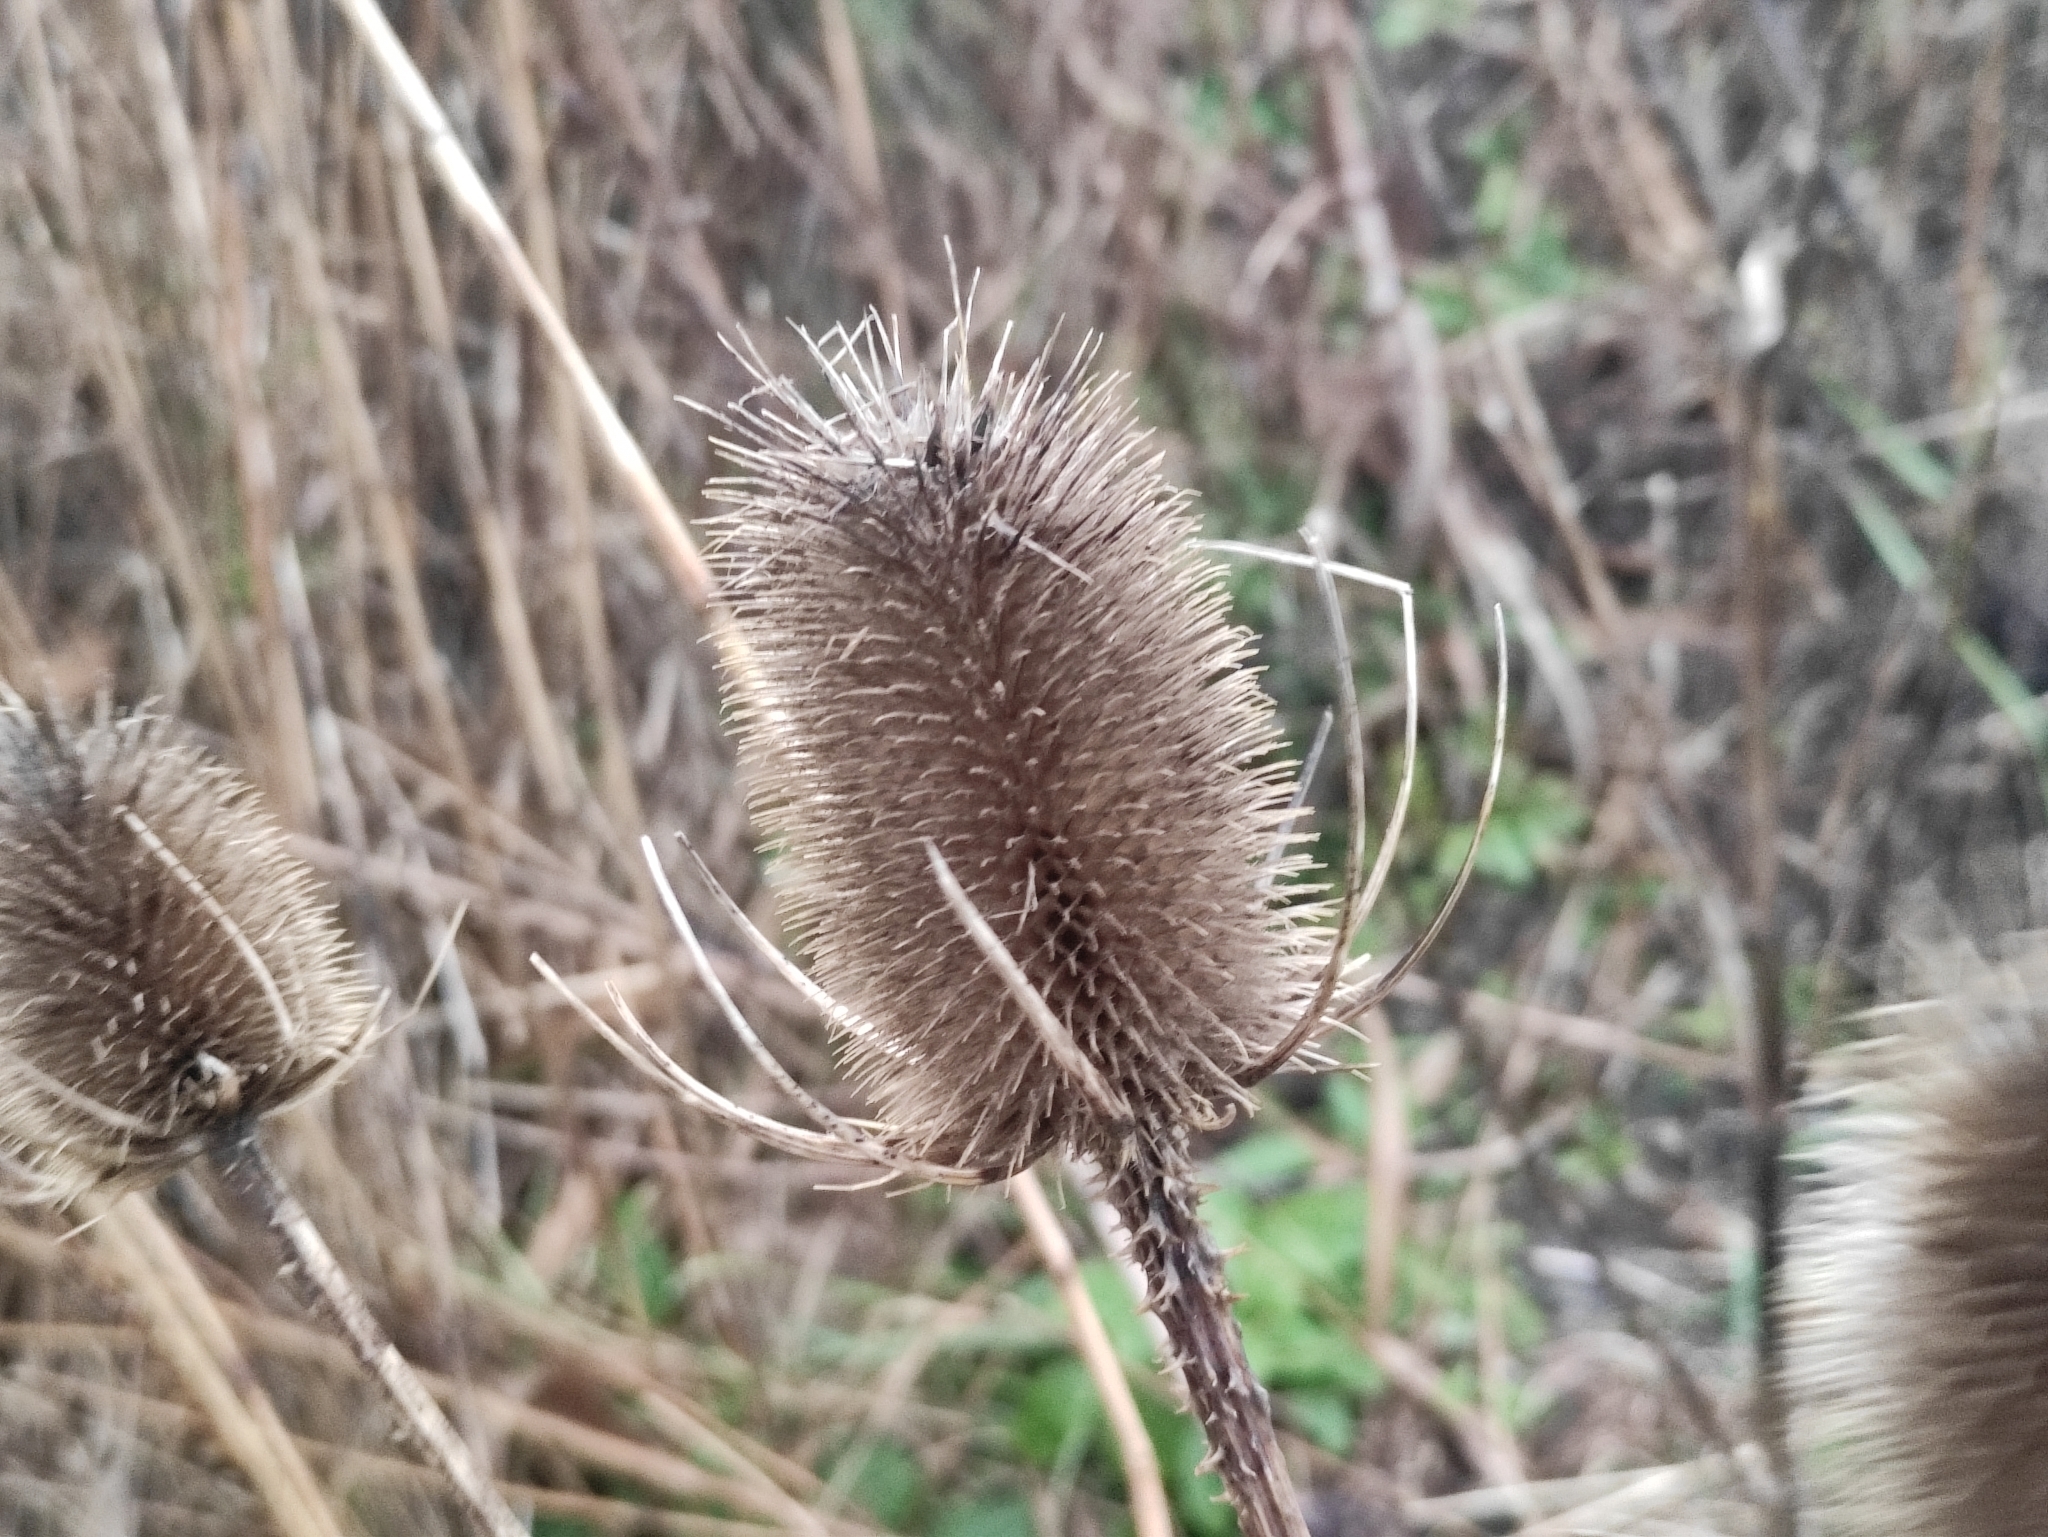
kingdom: Plantae
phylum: Tracheophyta
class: Magnoliopsida
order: Dipsacales
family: Caprifoliaceae
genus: Dipsacus
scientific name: Dipsacus fullonum
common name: Teasel
